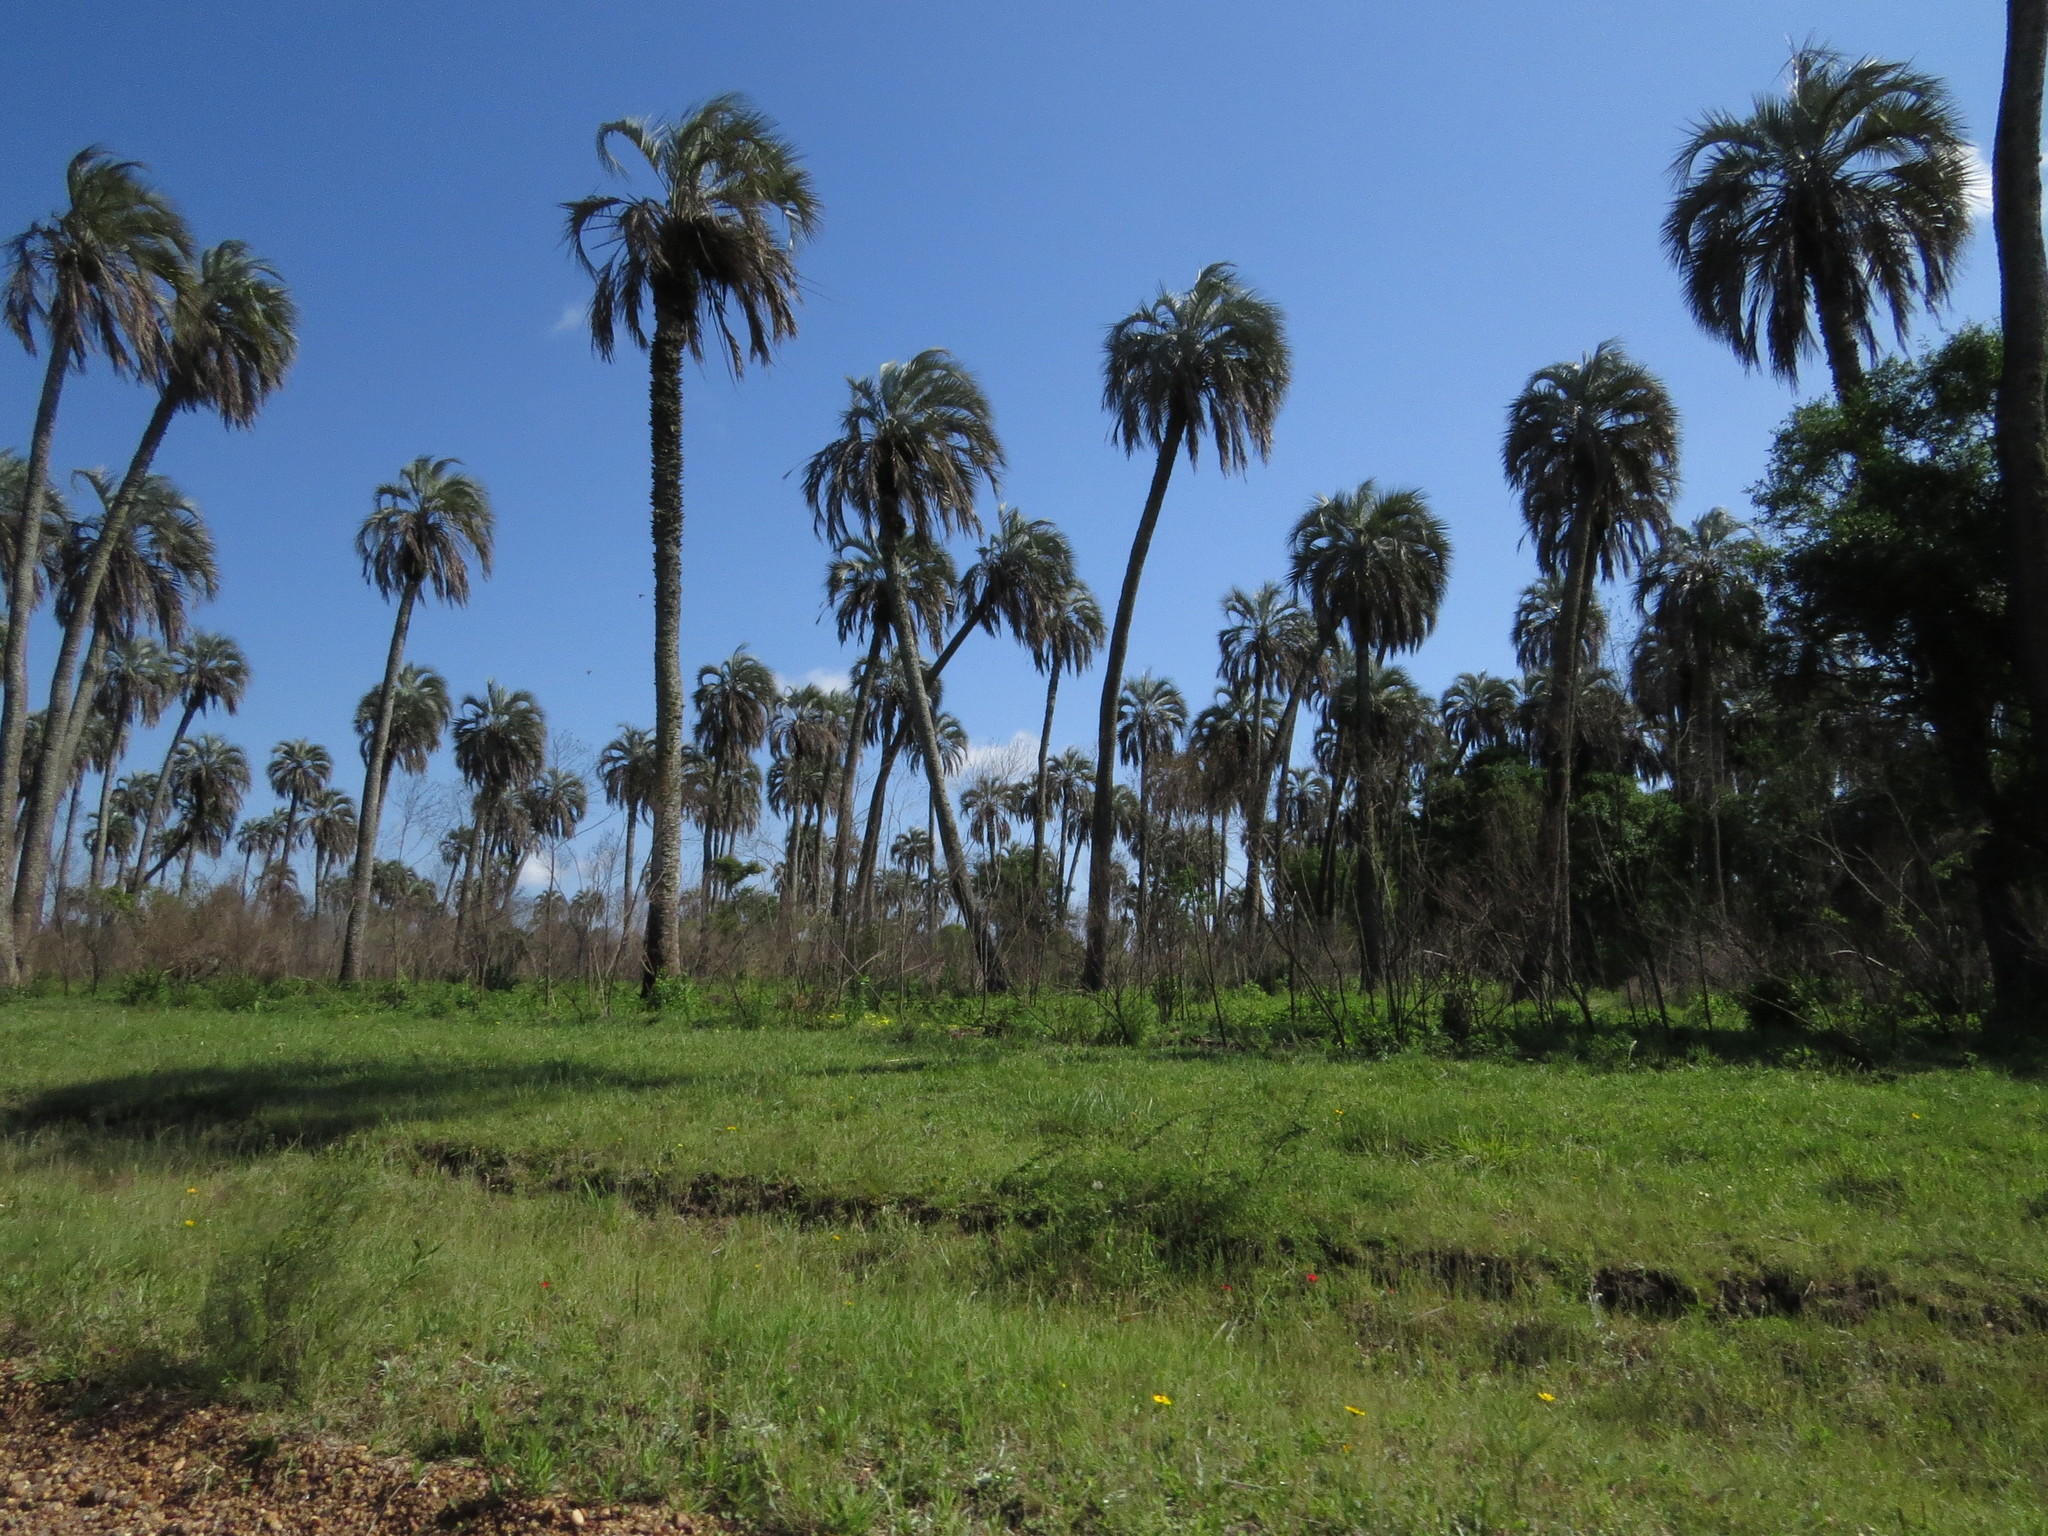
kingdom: Plantae
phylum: Tracheophyta
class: Liliopsida
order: Arecales
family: Arecaceae
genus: Butia
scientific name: Butia yatay
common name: Yatay palm
